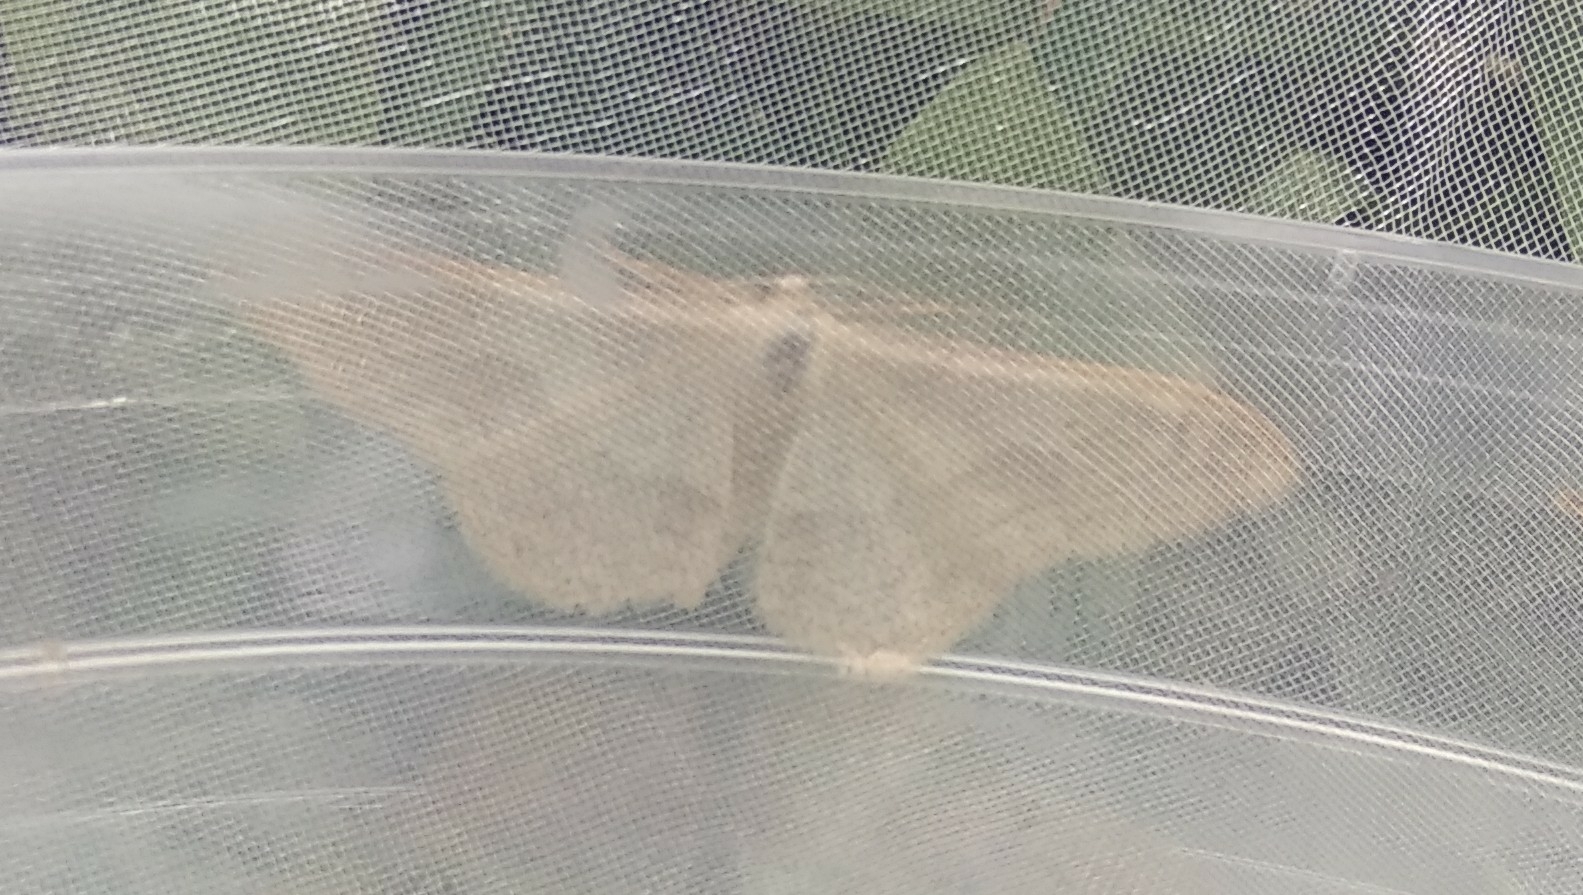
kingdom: Animalia
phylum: Arthropoda
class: Insecta
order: Lepidoptera
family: Geometridae
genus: Idaea
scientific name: Idaea aversata
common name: Riband wave
